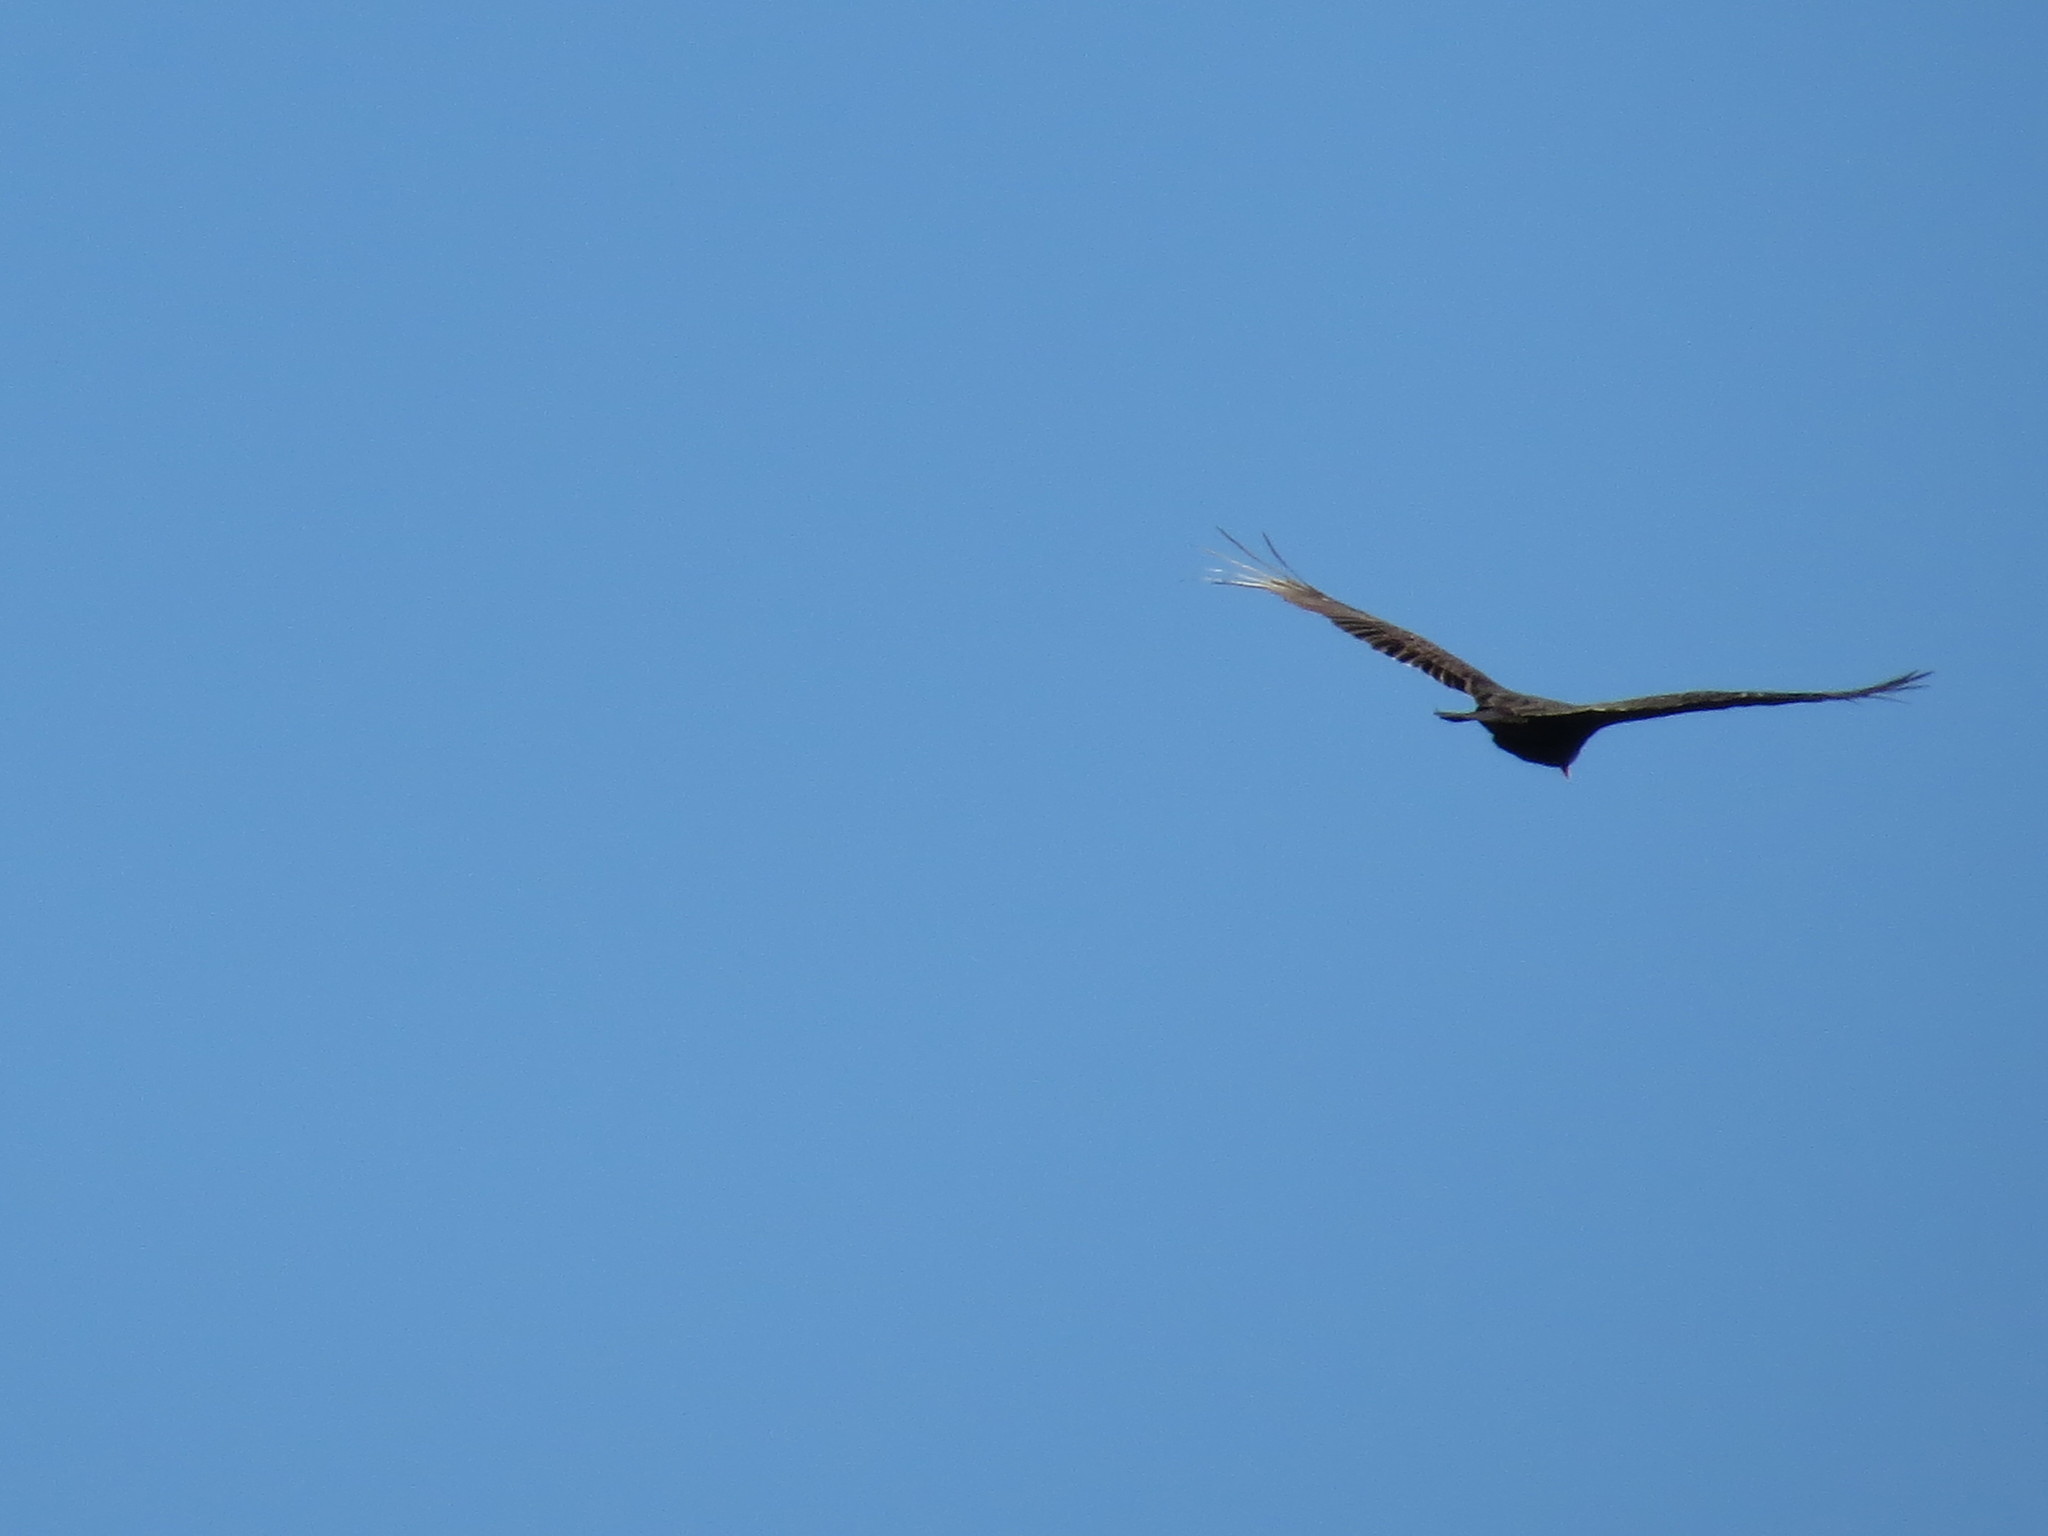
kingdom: Animalia
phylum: Chordata
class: Aves
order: Accipitriformes
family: Cathartidae
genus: Cathartes
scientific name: Cathartes aura
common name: Turkey vulture
